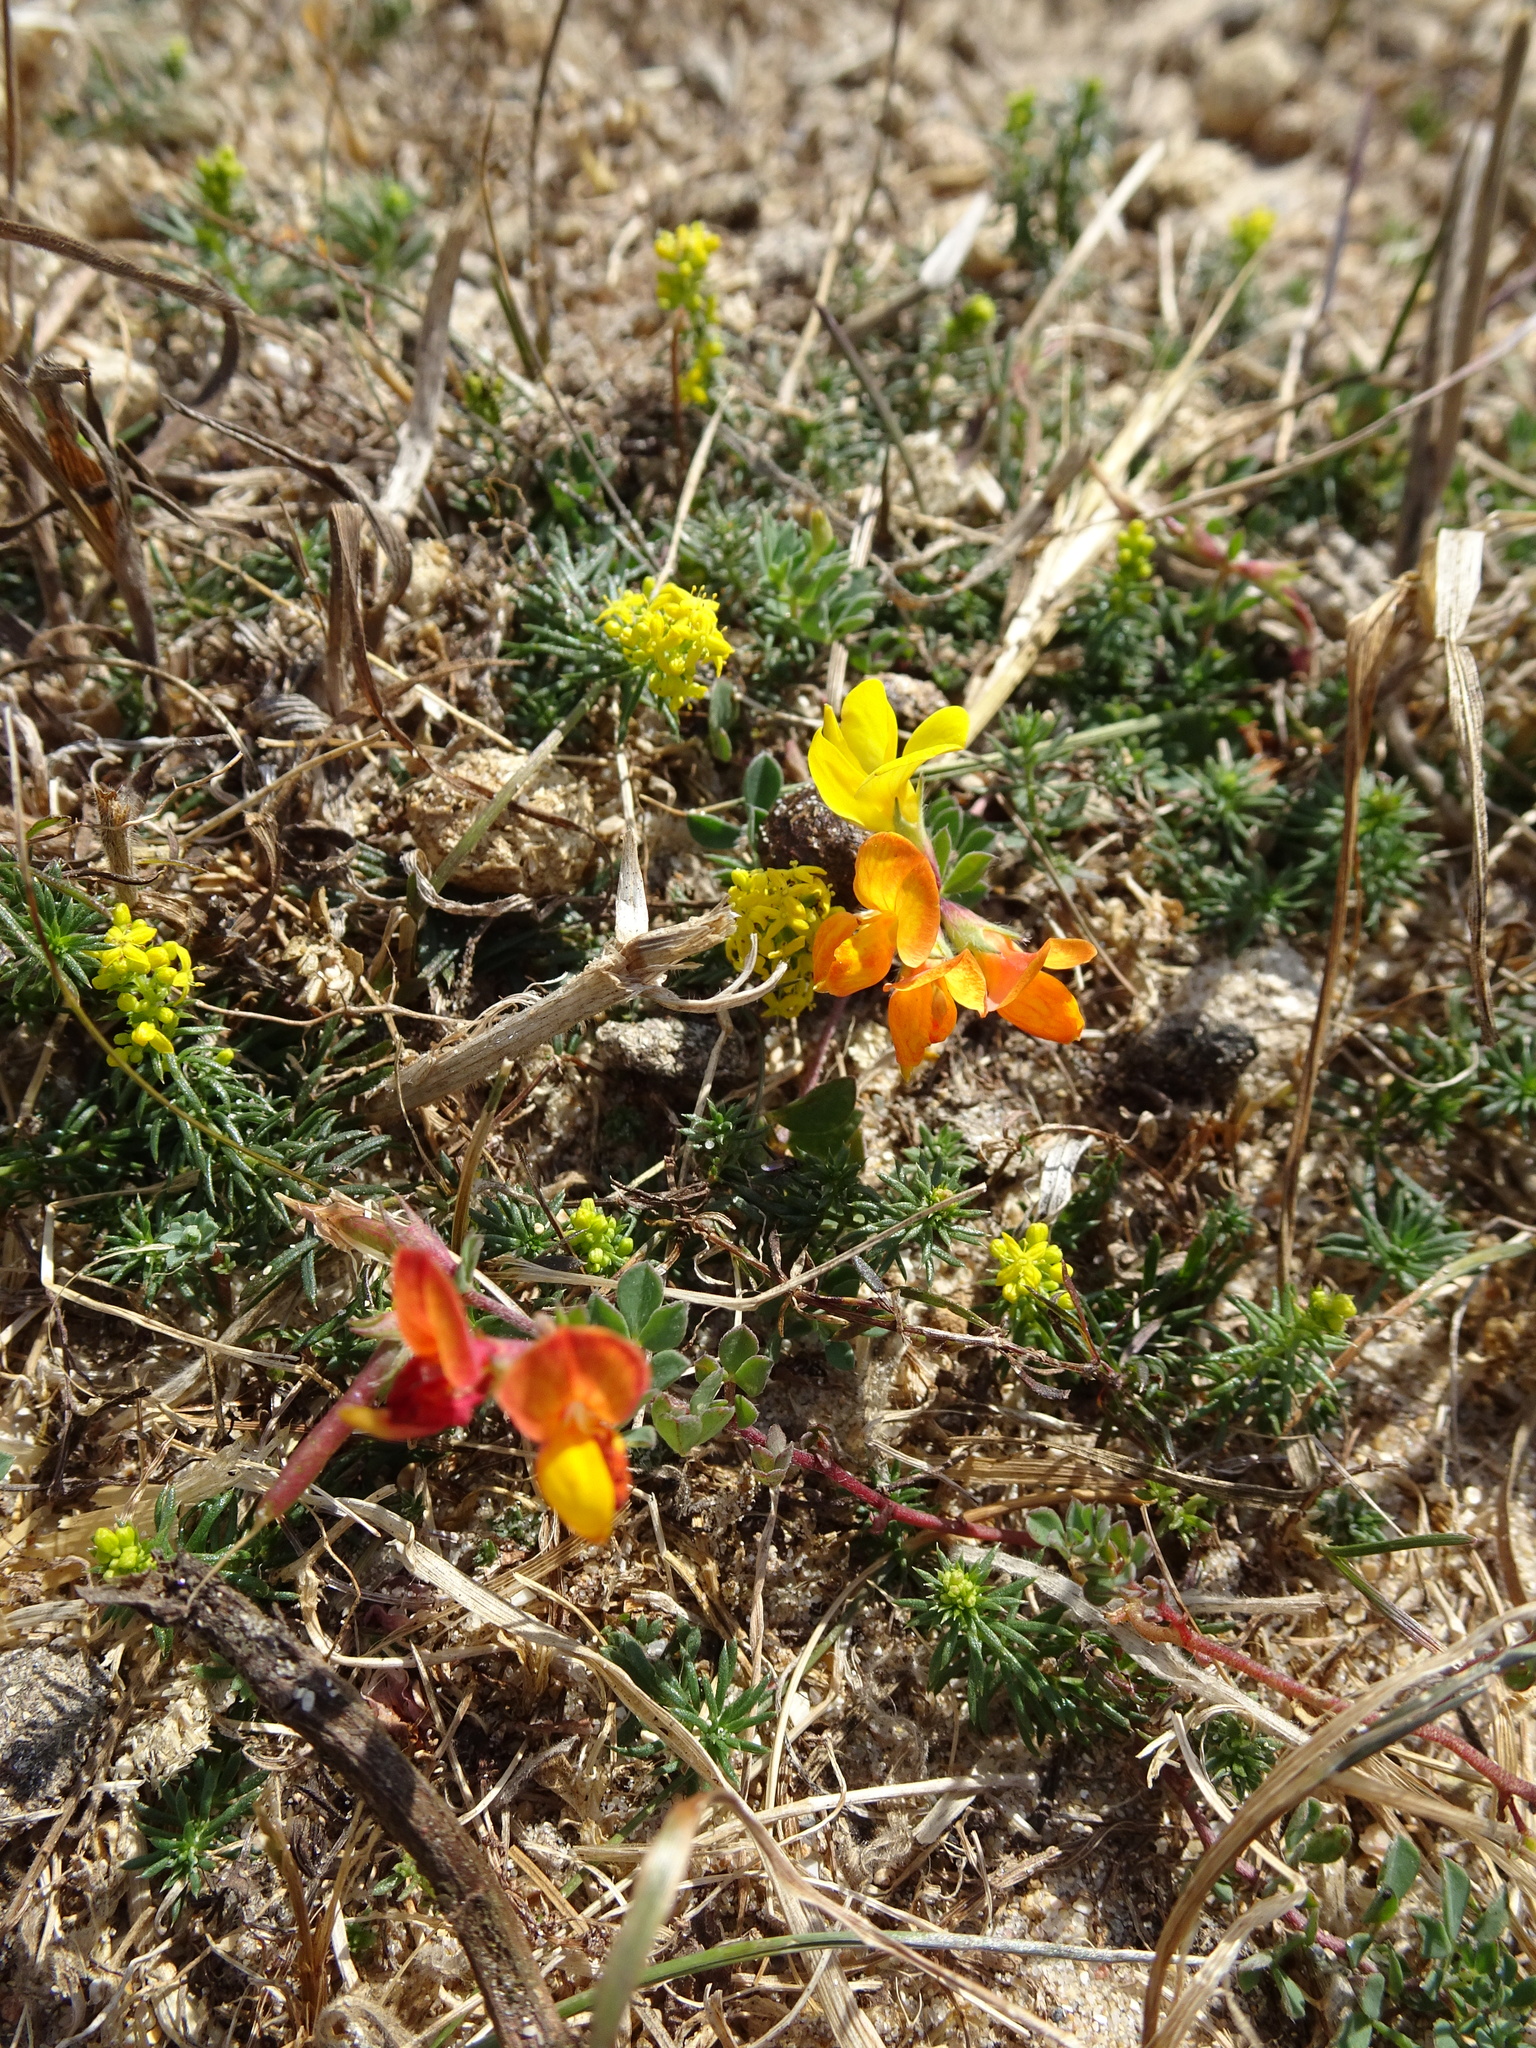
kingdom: Plantae
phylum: Tracheophyta
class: Magnoliopsida
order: Fabales
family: Fabaceae
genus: Lotus
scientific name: Lotus corniculatus
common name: Common bird's-foot-trefoil
